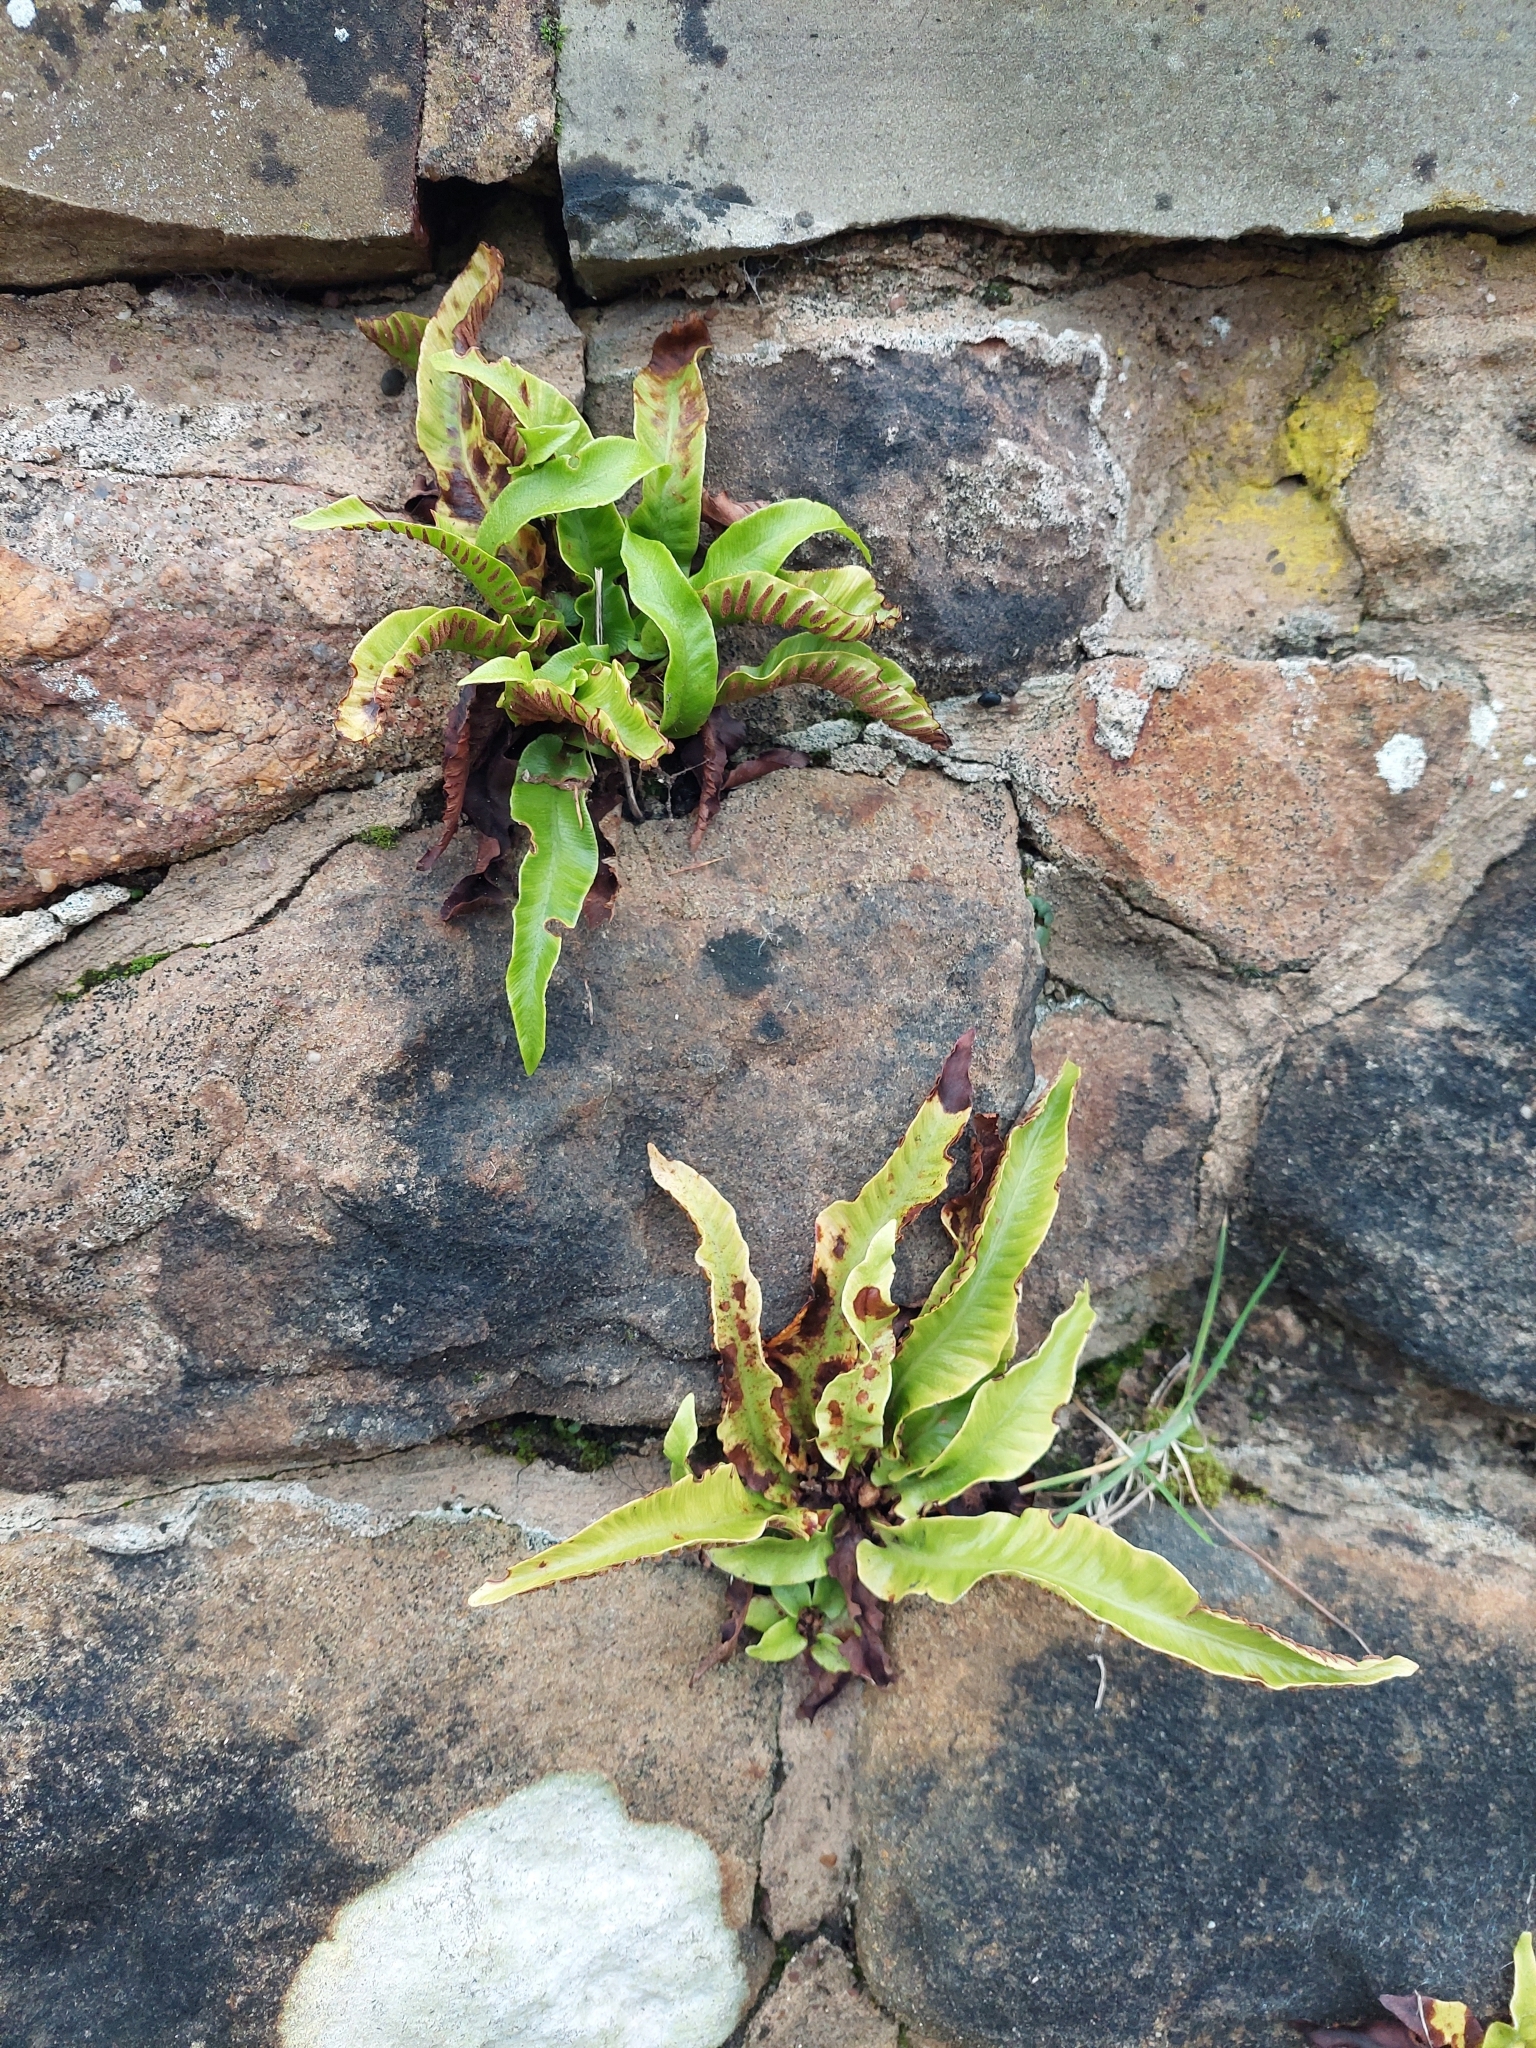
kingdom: Plantae
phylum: Tracheophyta
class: Polypodiopsida
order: Polypodiales
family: Aspleniaceae
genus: Asplenium
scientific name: Asplenium scolopendrium
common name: Hart's-tongue fern
